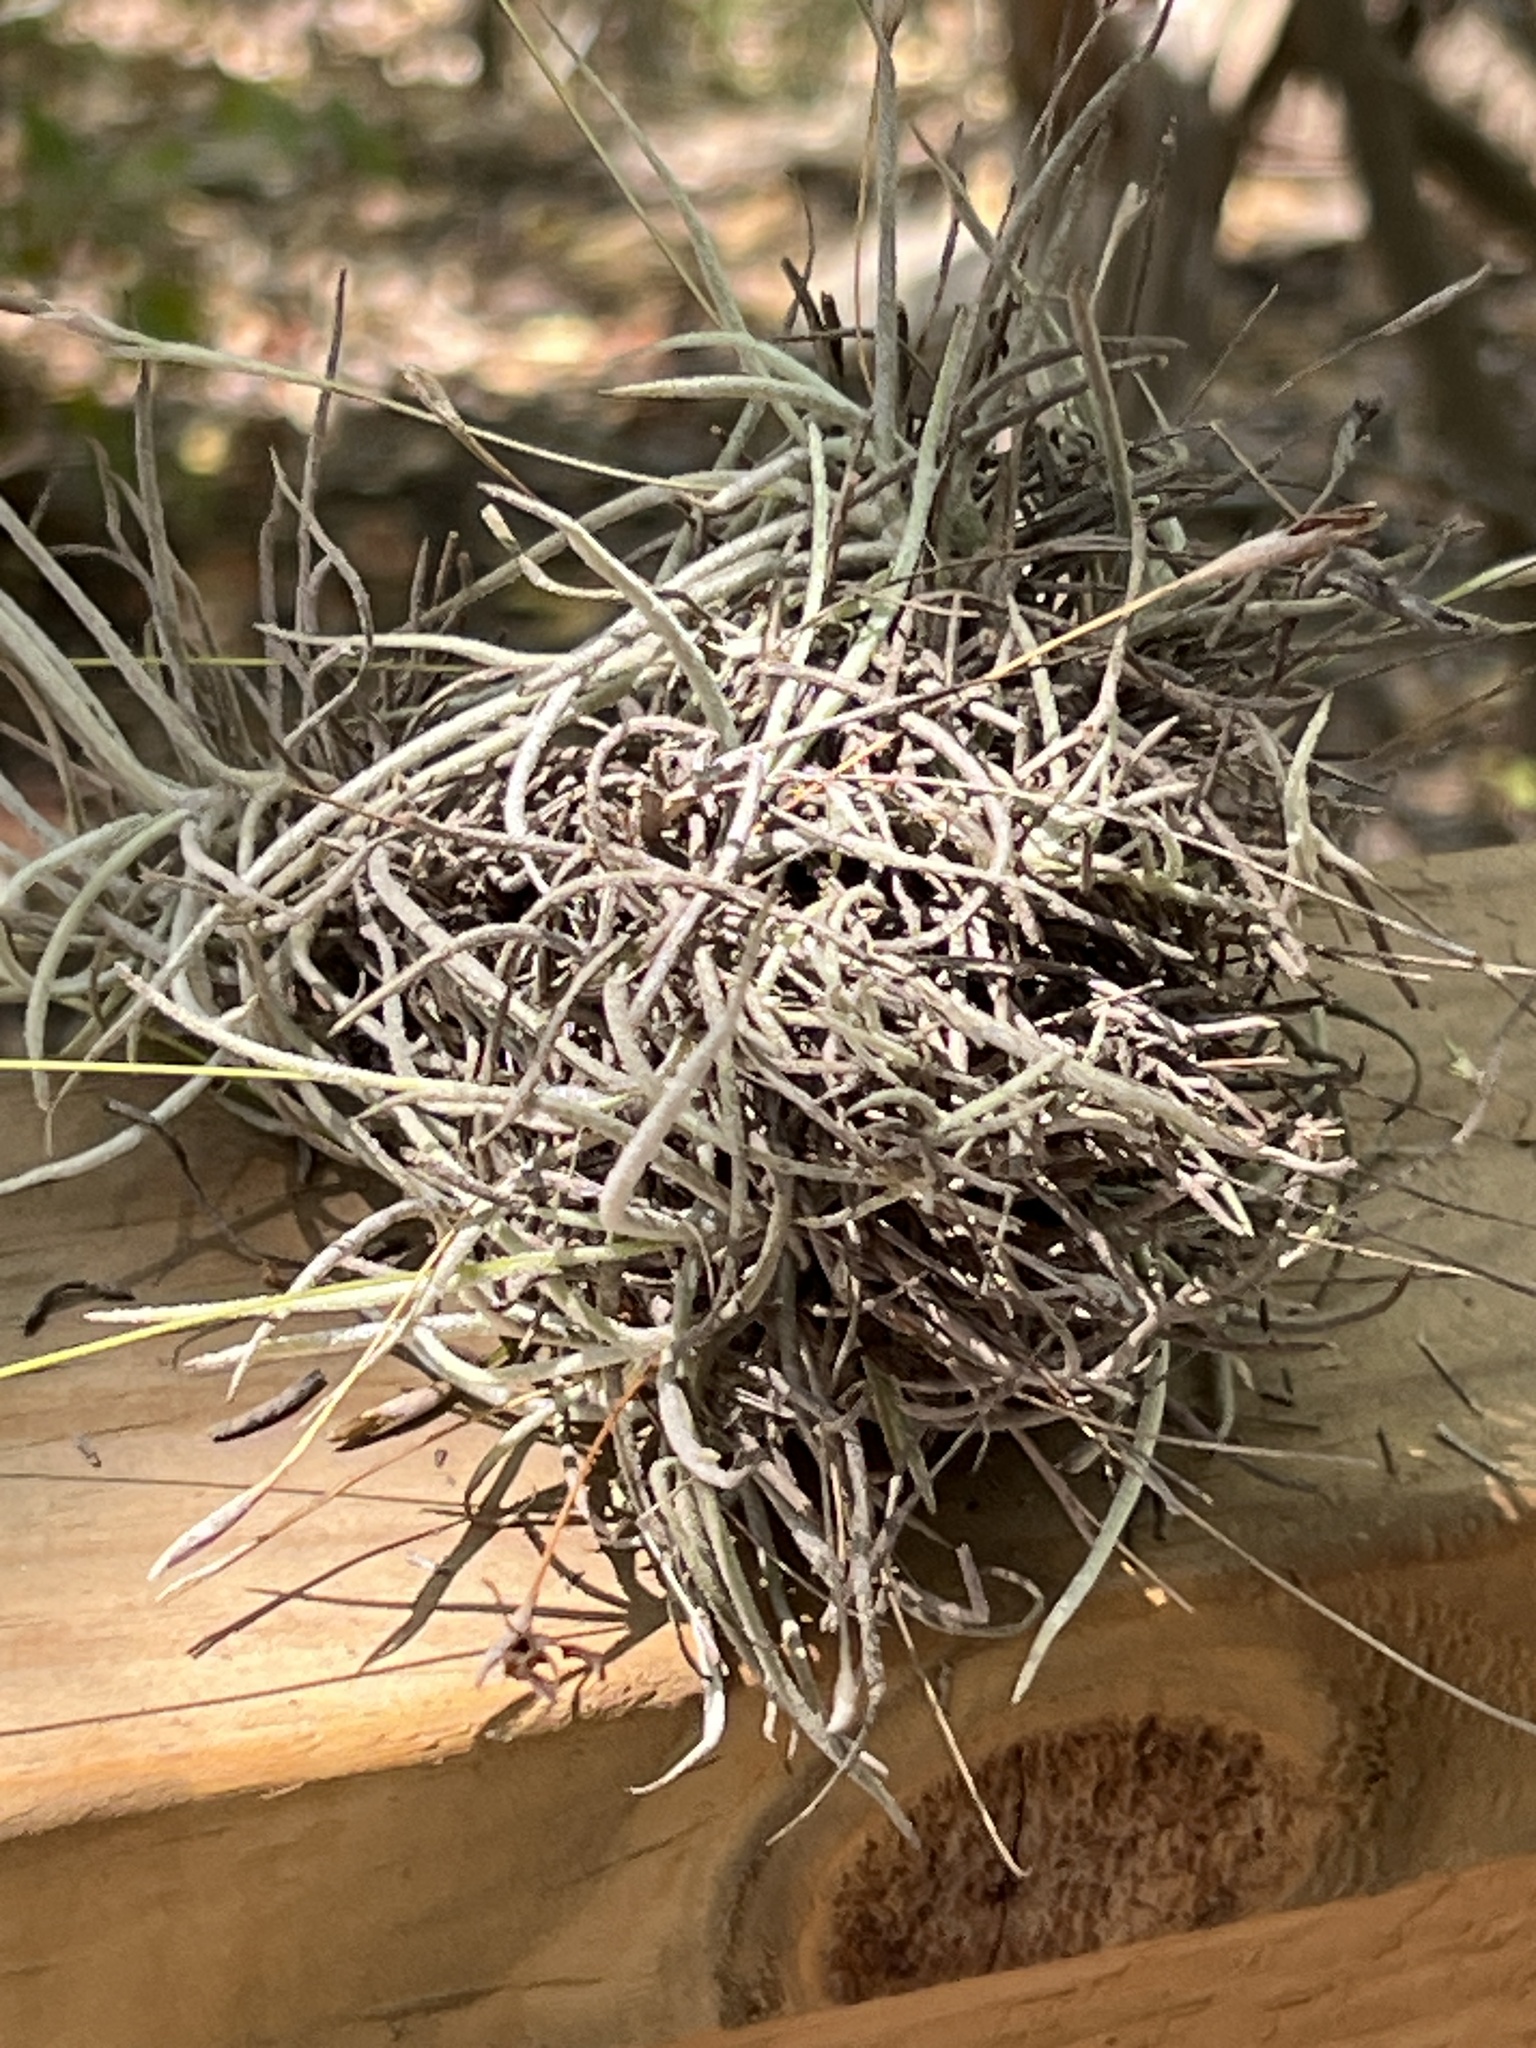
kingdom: Plantae
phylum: Tracheophyta
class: Liliopsida
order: Poales
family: Bromeliaceae
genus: Tillandsia
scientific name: Tillandsia recurvata
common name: Small ballmoss
